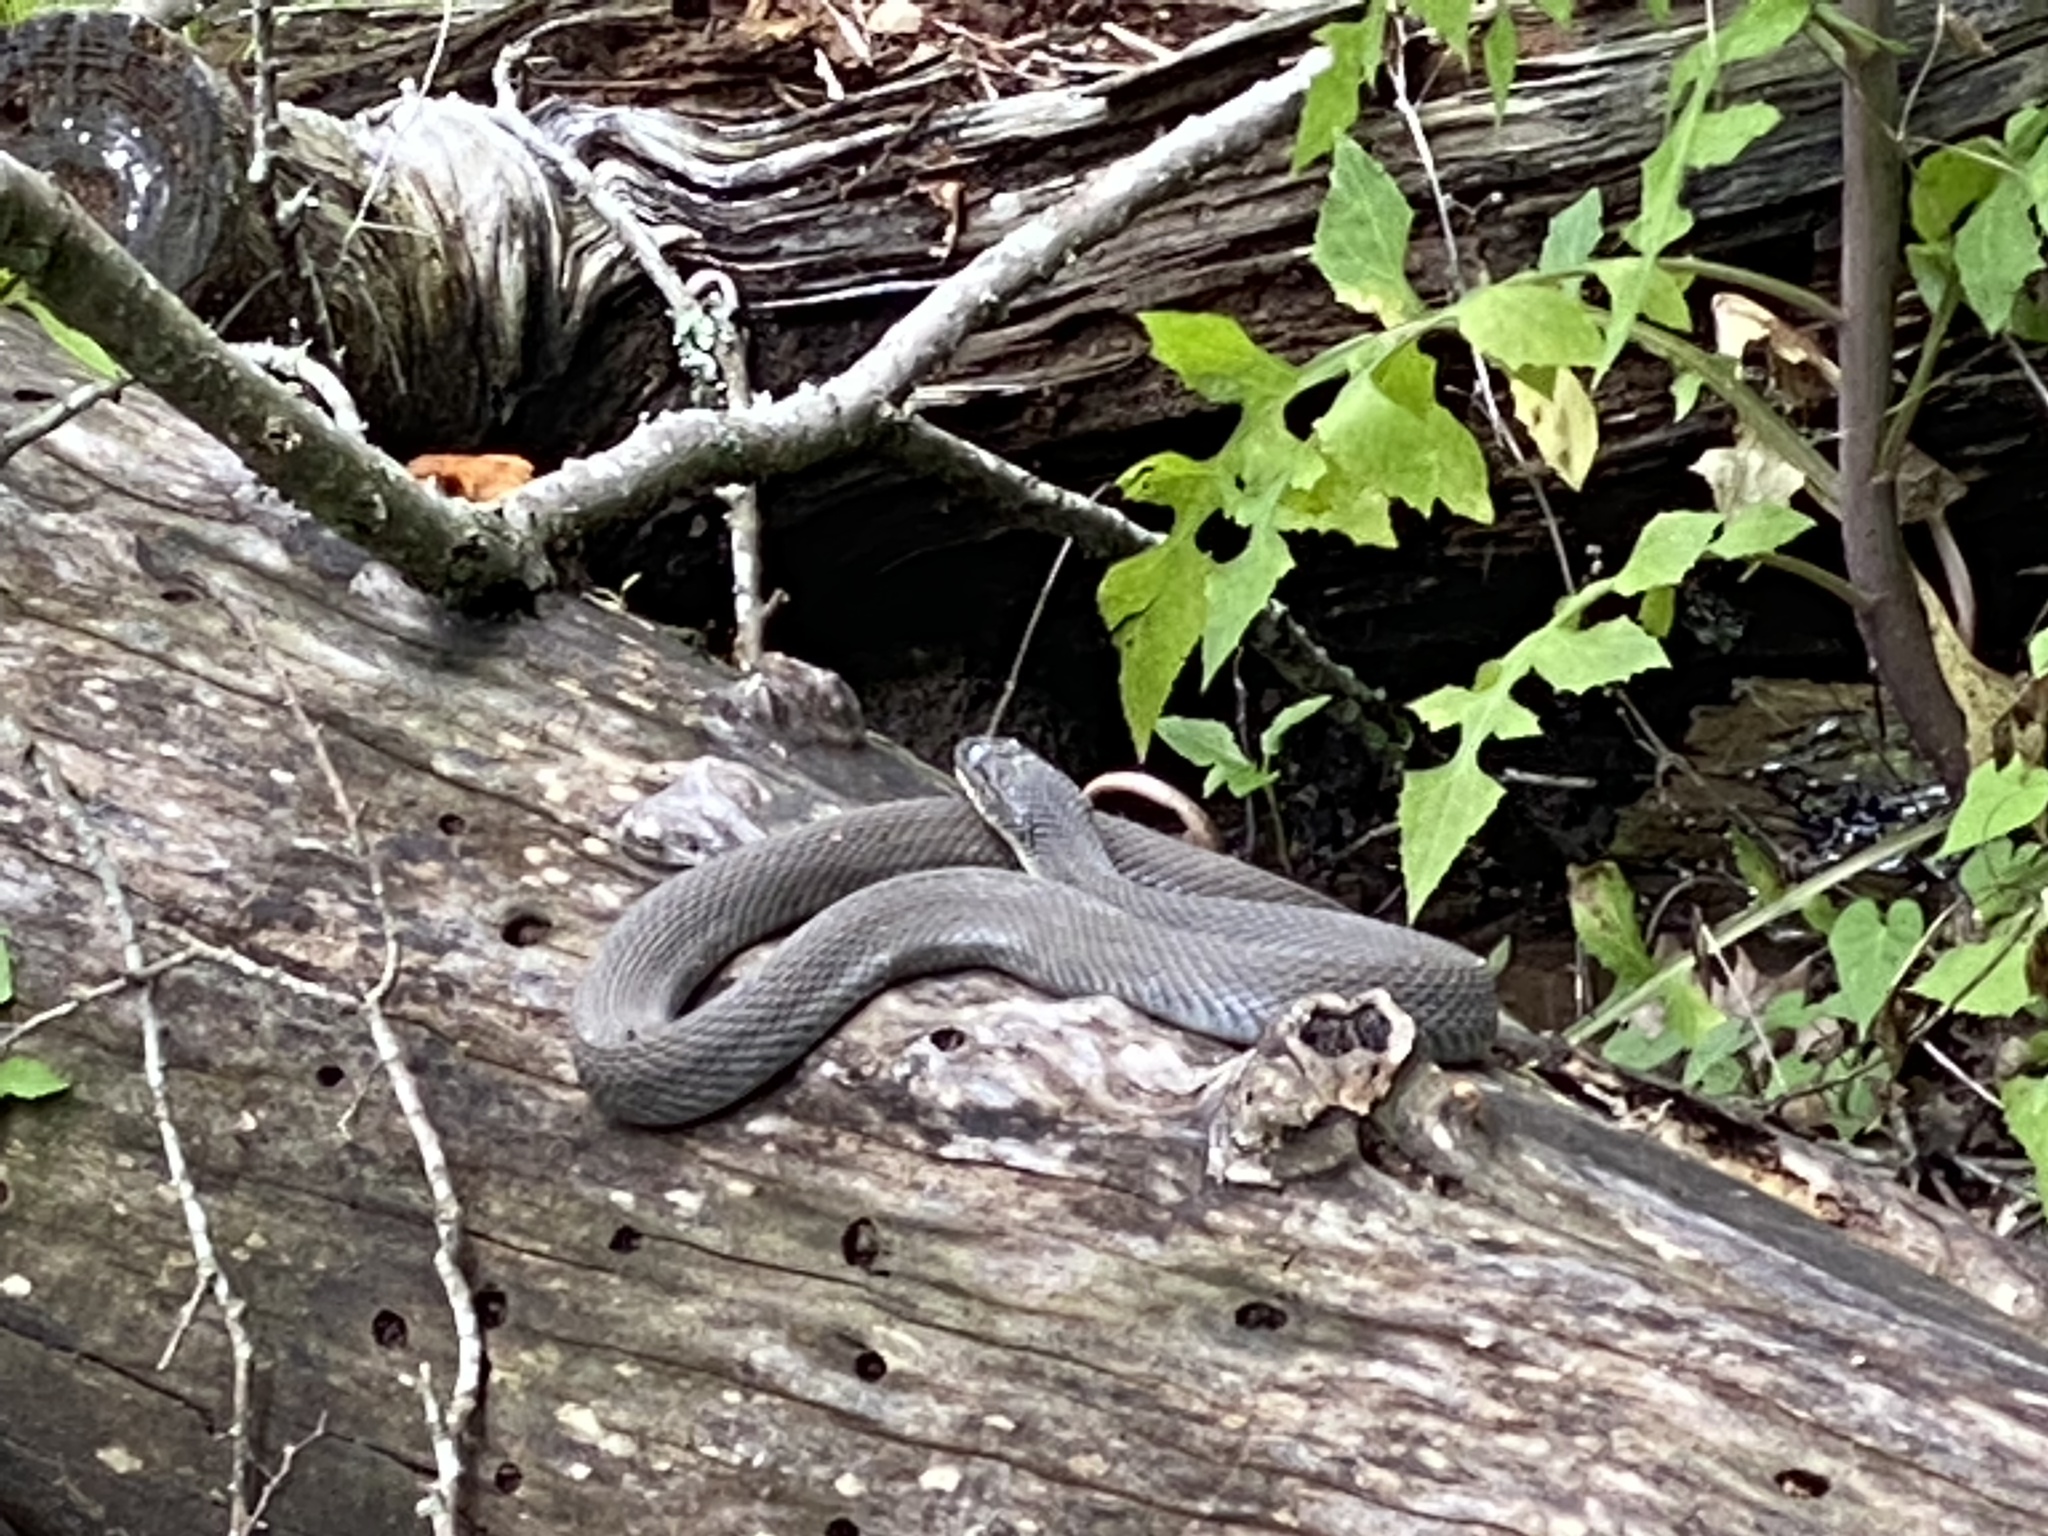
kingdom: Animalia
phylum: Chordata
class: Squamata
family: Colubridae
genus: Nerodia
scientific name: Nerodia erythrogaster
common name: Plainbelly water snake
